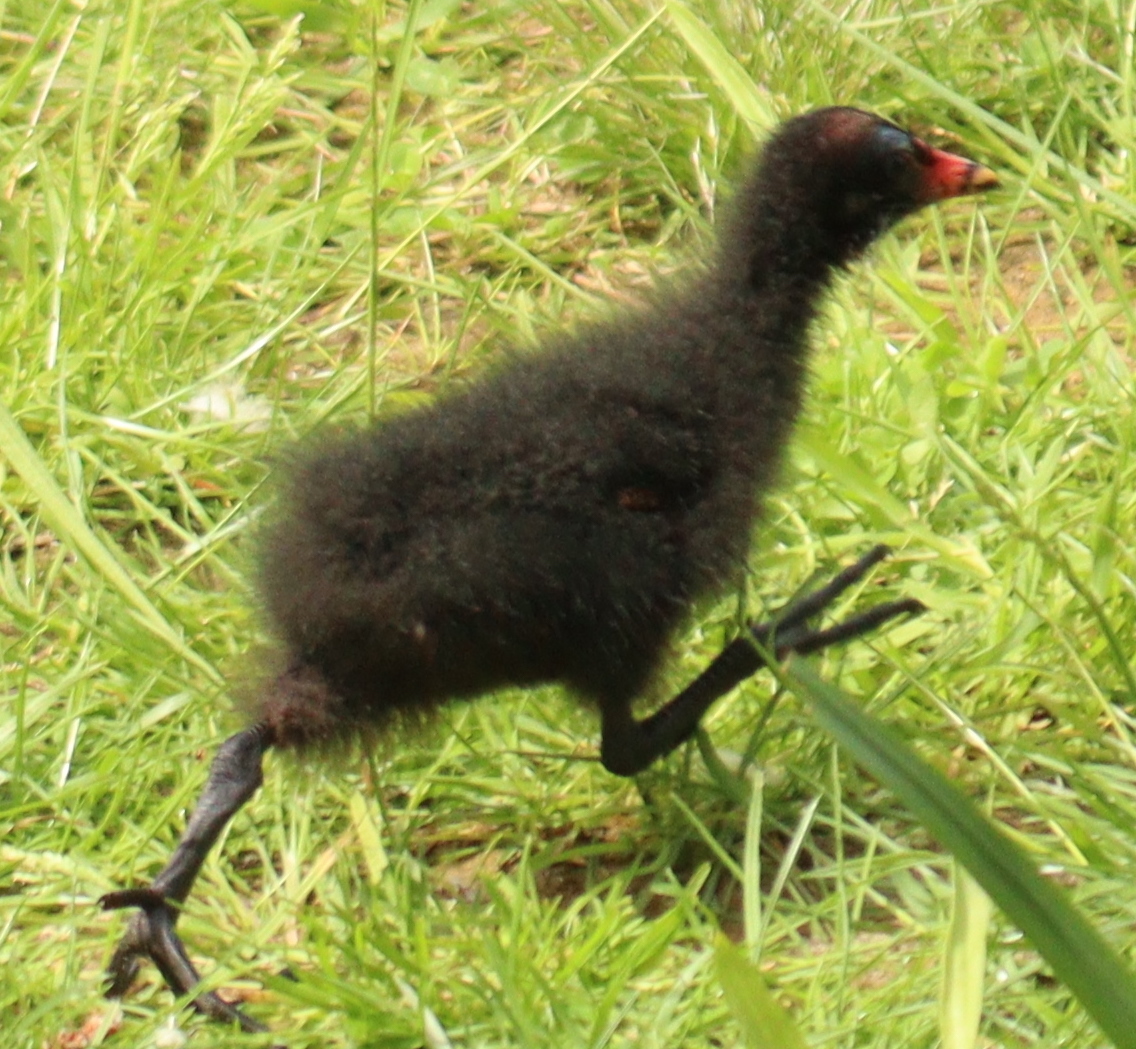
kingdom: Animalia
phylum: Chordata
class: Aves
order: Gruiformes
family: Rallidae
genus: Gallinula
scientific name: Gallinula chloropus
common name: Common moorhen
